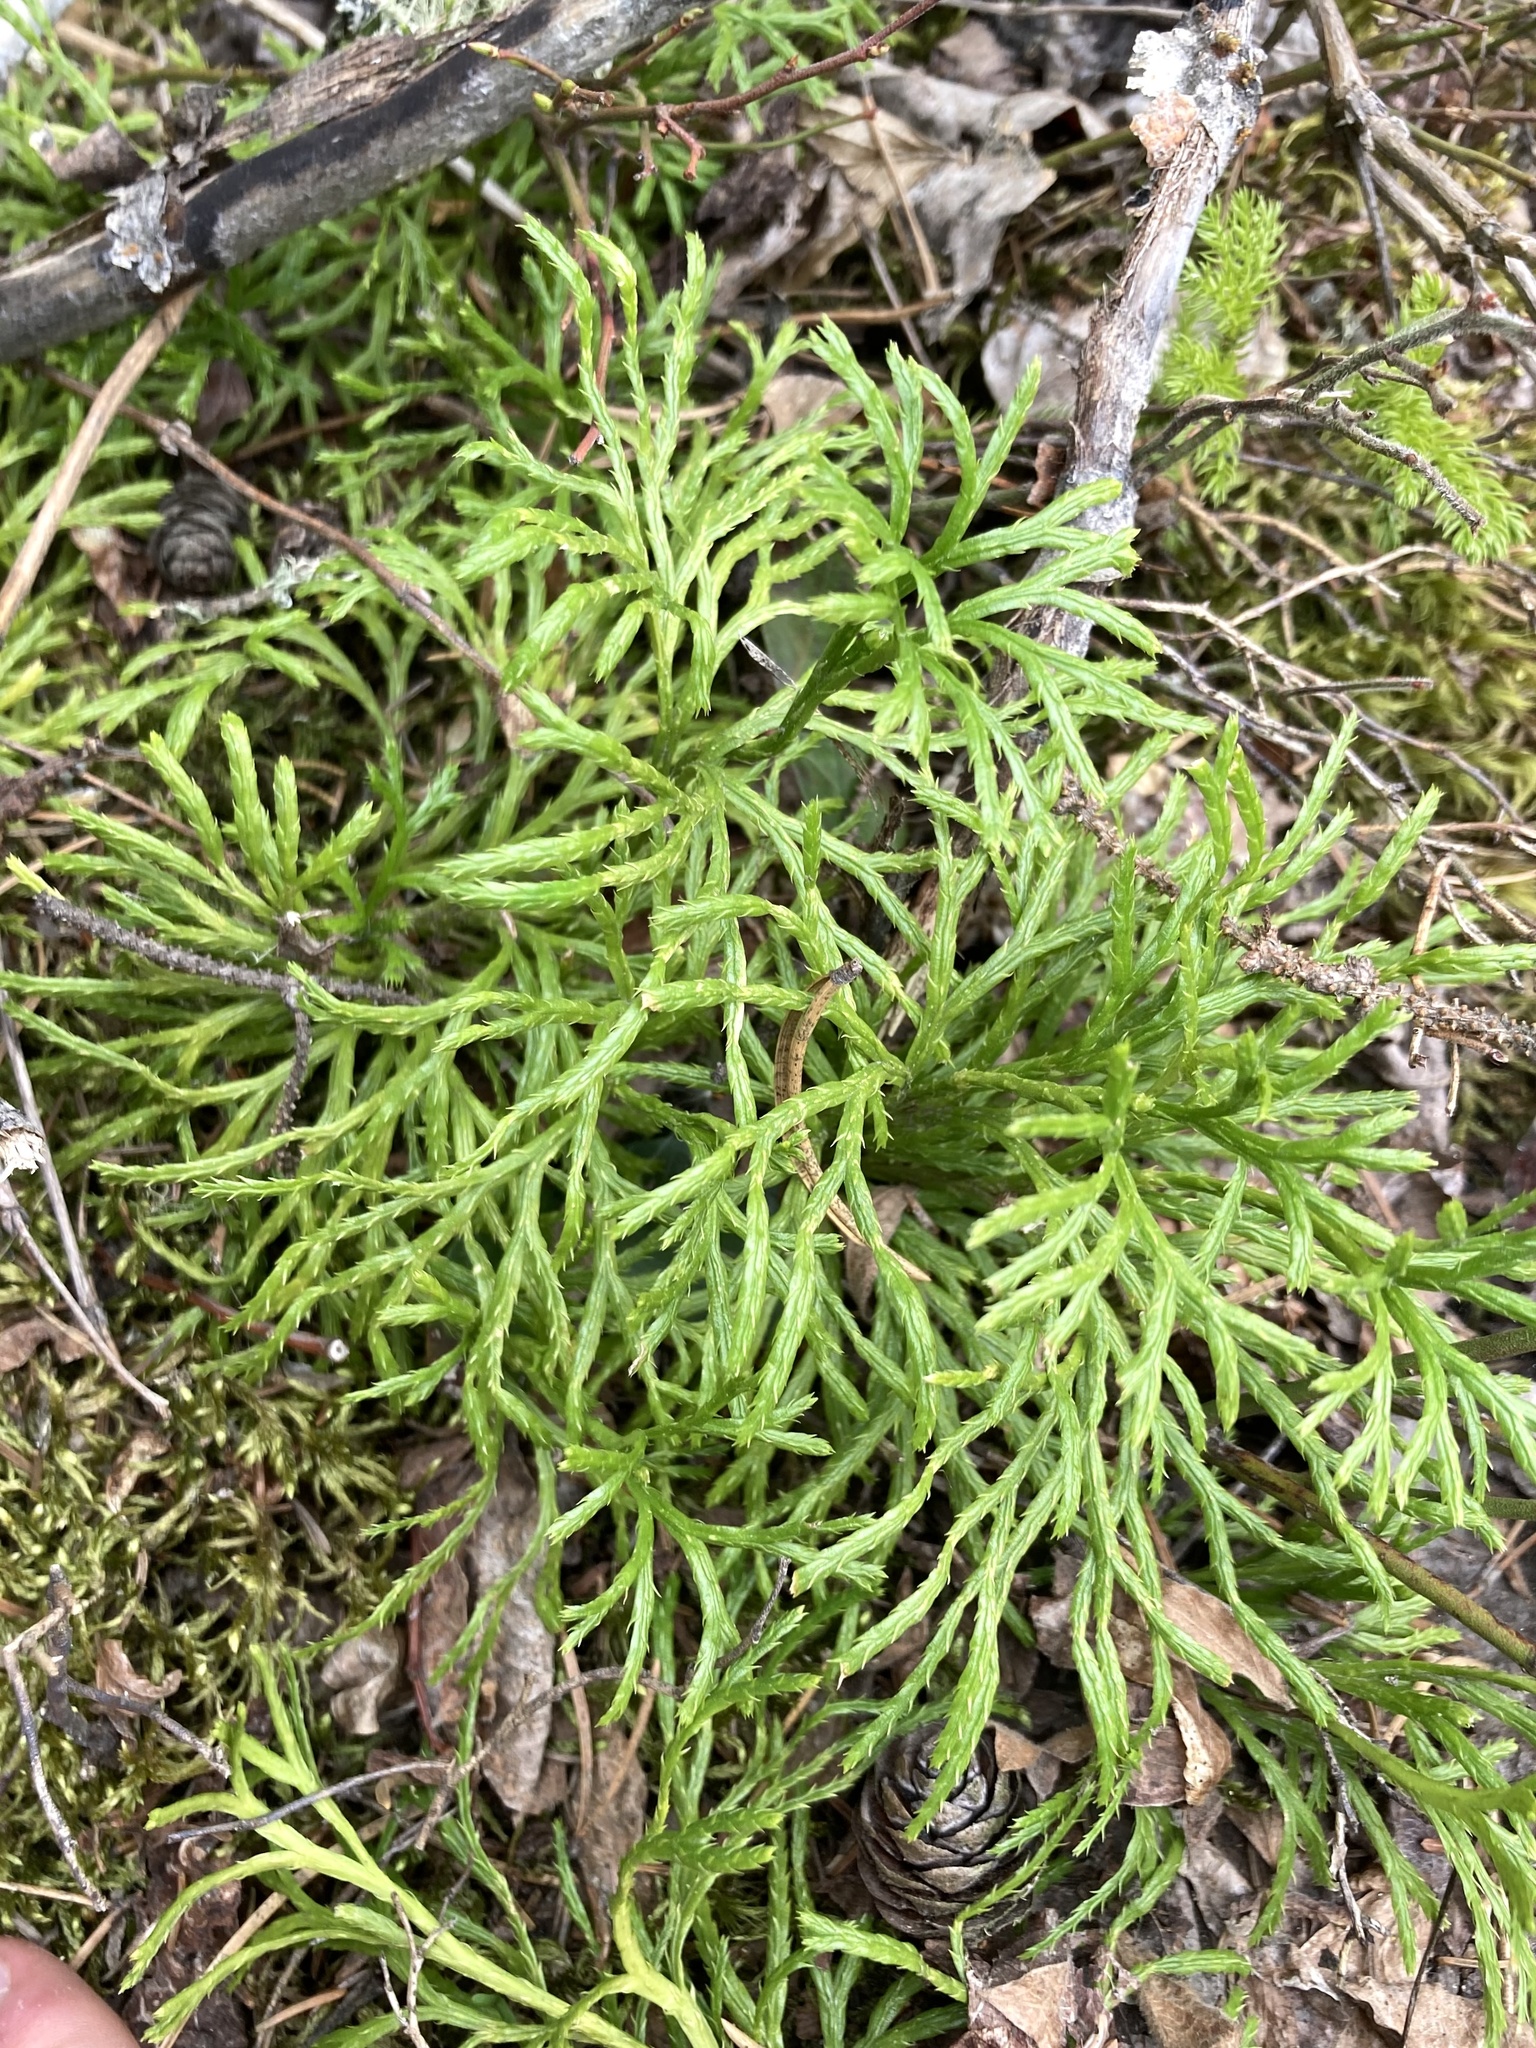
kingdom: Plantae
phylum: Tracheophyta
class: Lycopodiopsida
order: Lycopodiales
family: Lycopodiaceae
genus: Diphasiastrum
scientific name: Diphasiastrum complanatum
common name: Northern running-pine
